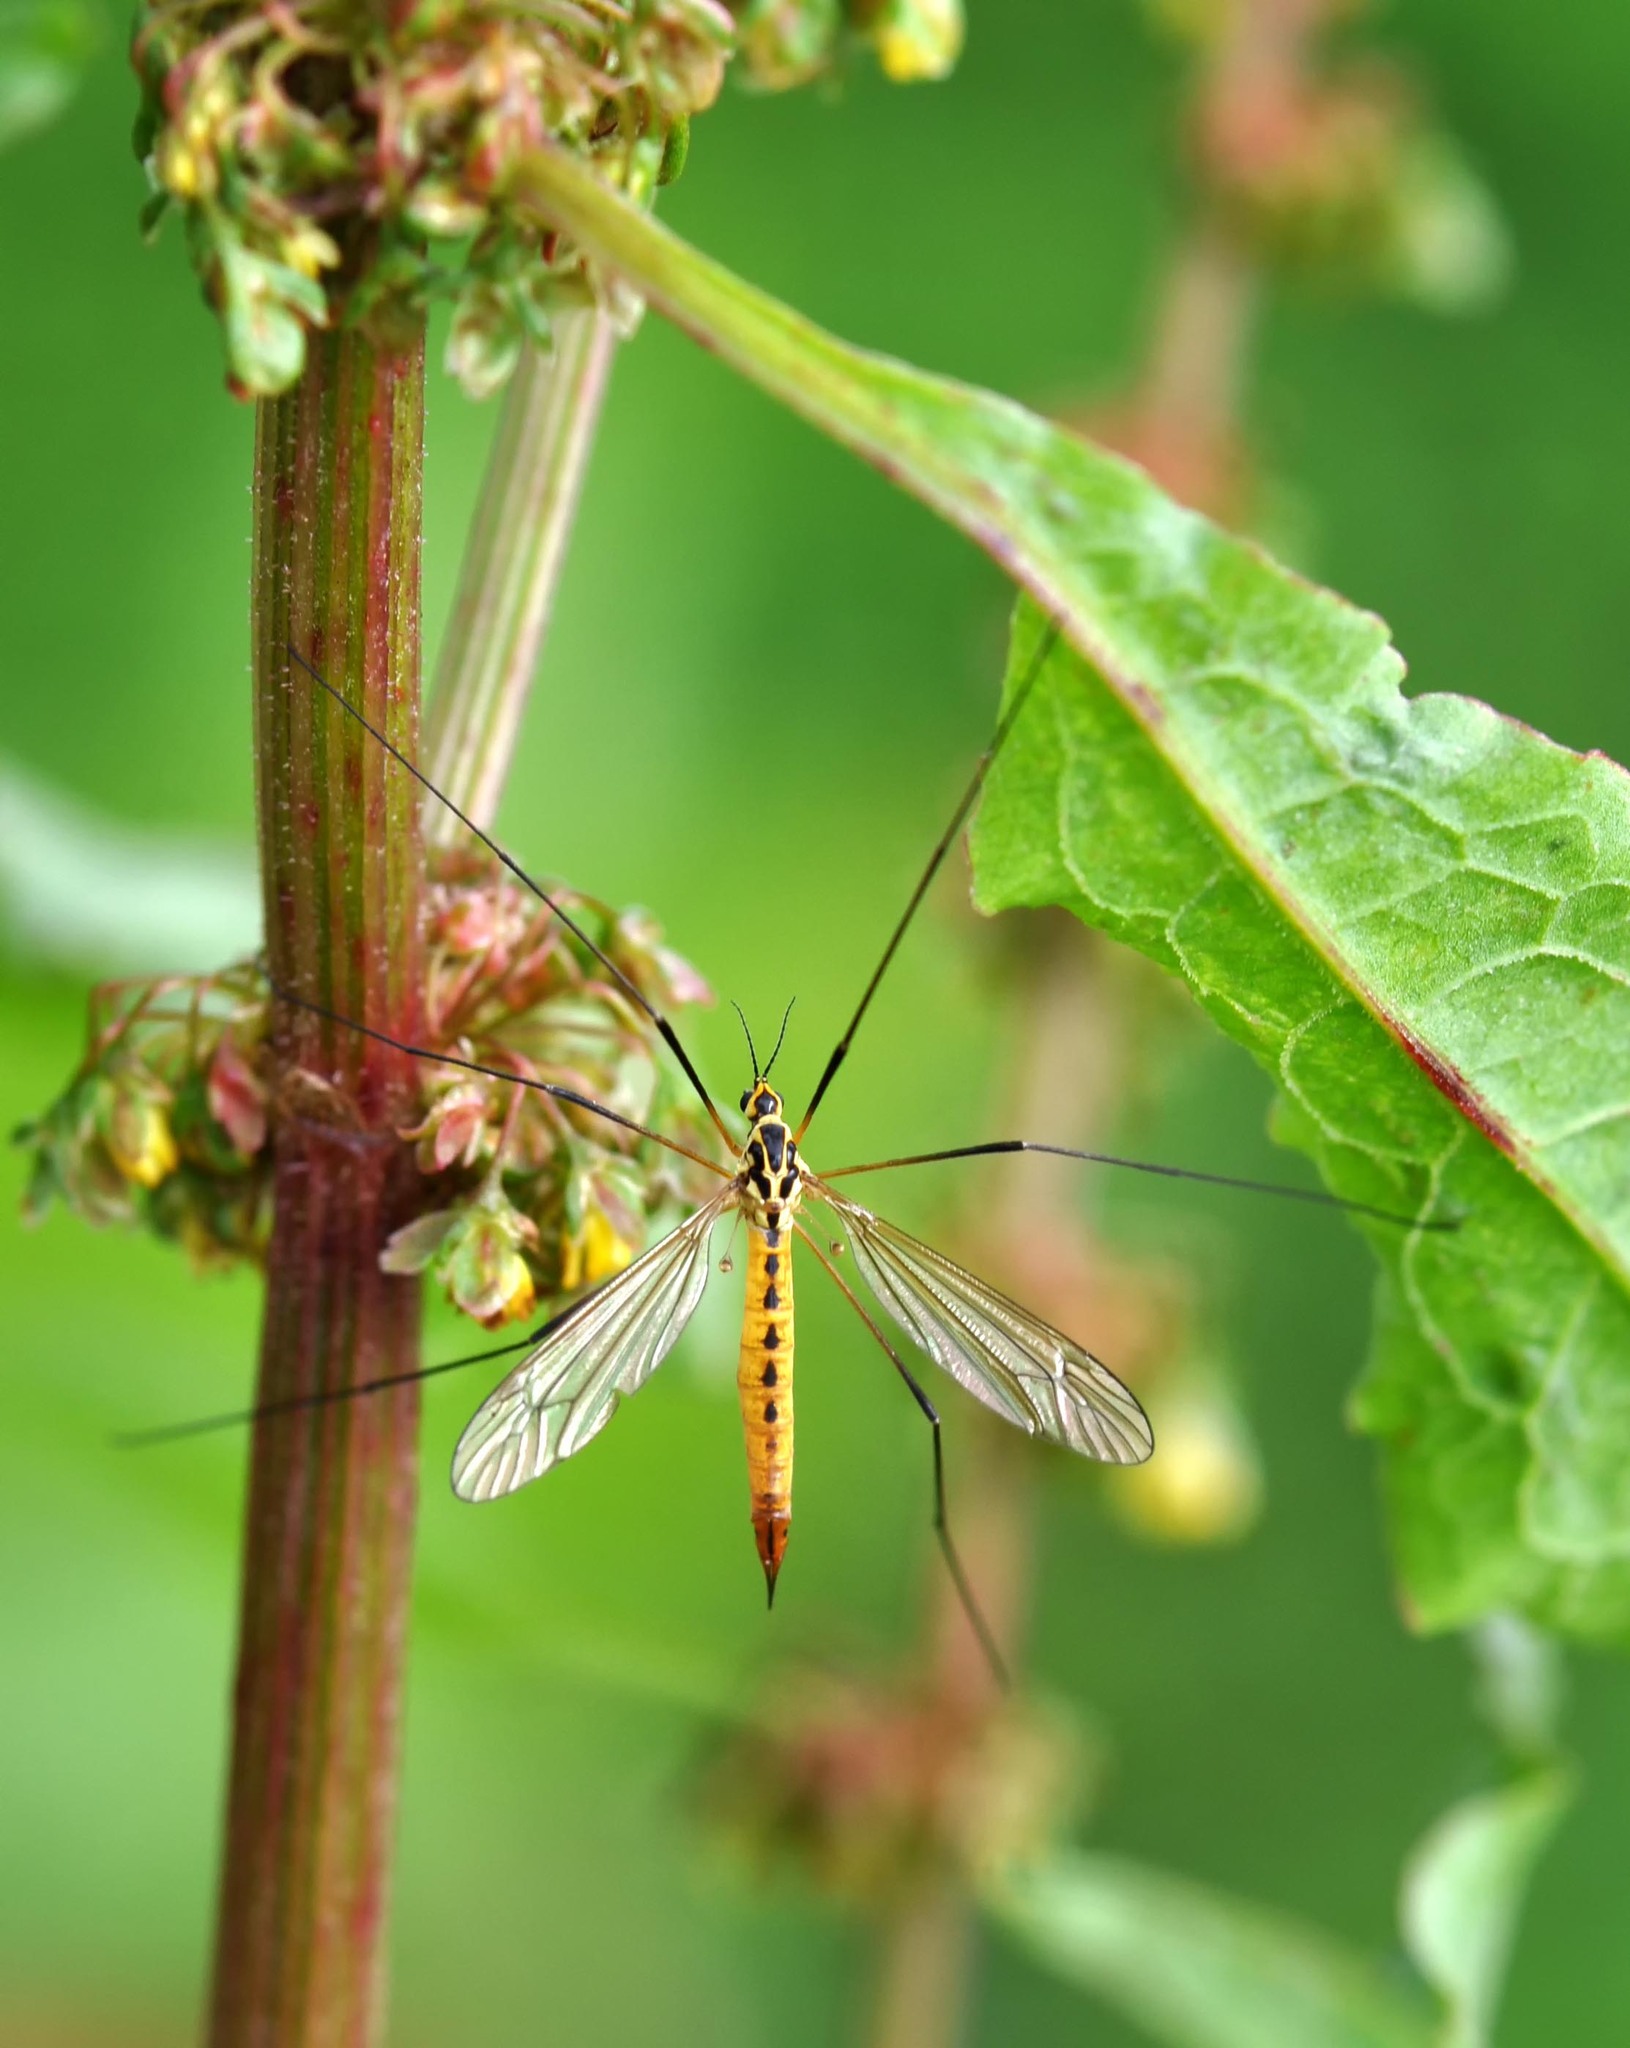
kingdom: Animalia
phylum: Arthropoda
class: Insecta
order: Diptera
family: Tipulidae
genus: Nephrotoma
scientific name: Nephrotoma flavescens
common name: Tiger cranefly
